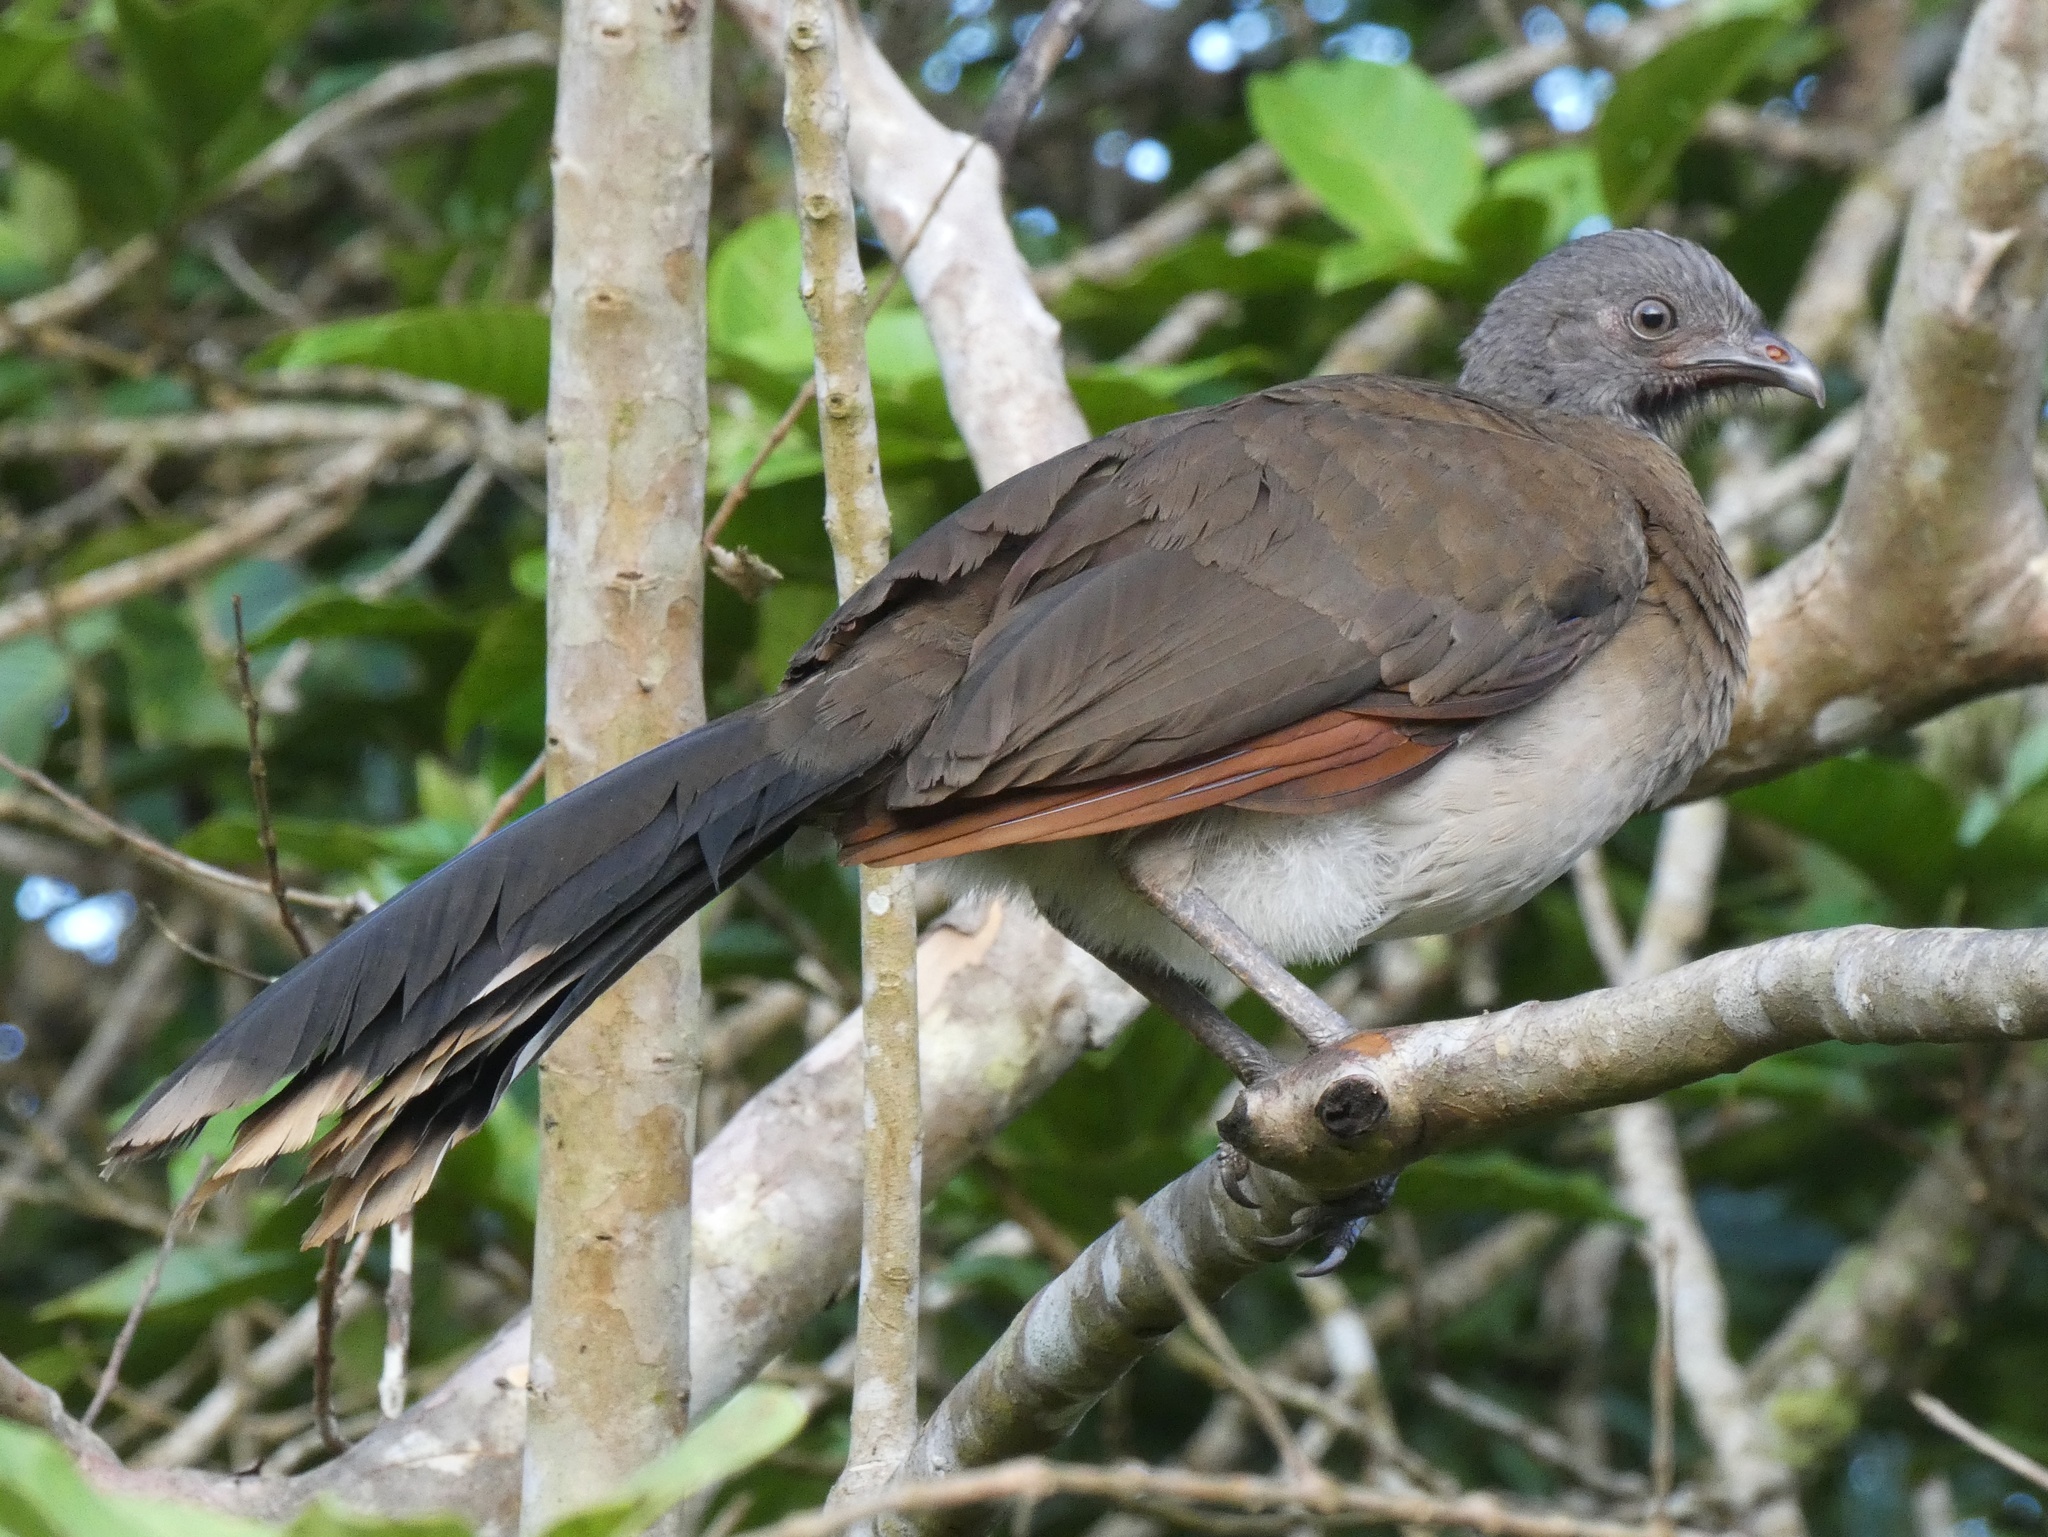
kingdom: Animalia
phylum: Chordata
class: Aves
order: Galliformes
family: Cracidae
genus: Ortalis
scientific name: Ortalis cinereiceps
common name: Grey-headed chachalaca
